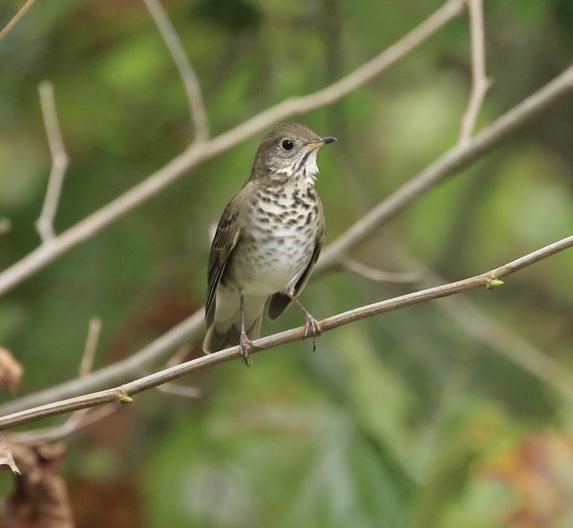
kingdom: Animalia
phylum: Chordata
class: Aves
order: Passeriformes
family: Turdidae
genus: Catharus
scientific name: Catharus minimus
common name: Grey-cheeked thrush
